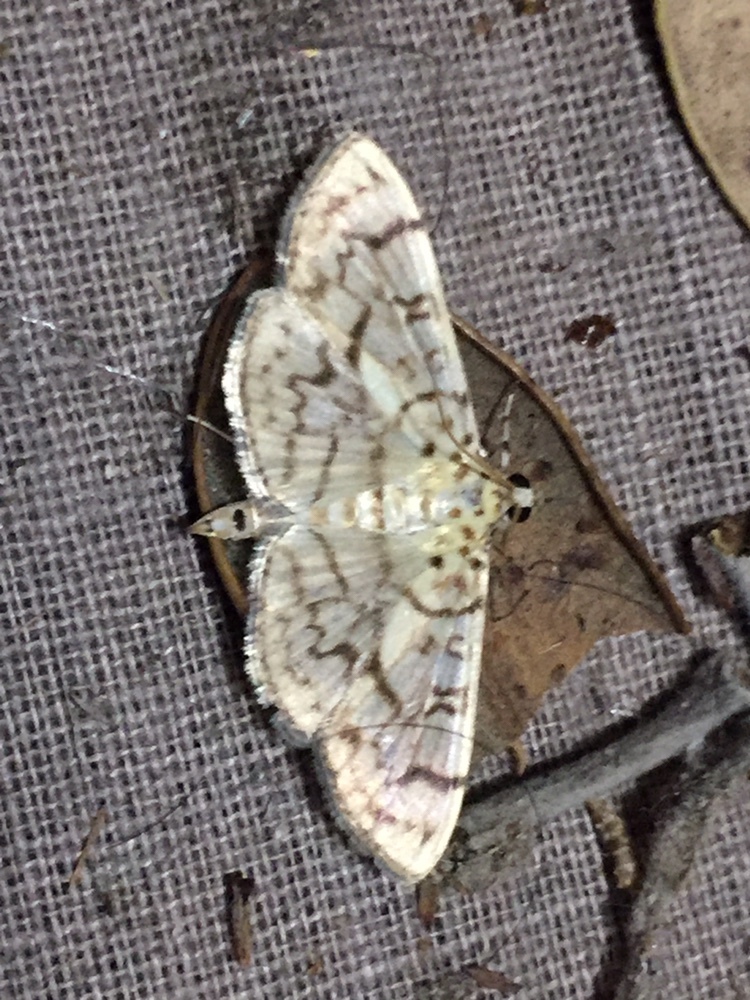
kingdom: Animalia
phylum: Arthropoda
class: Insecta
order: Lepidoptera
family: Crambidae
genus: Haritalodes
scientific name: Haritalodes derogata
